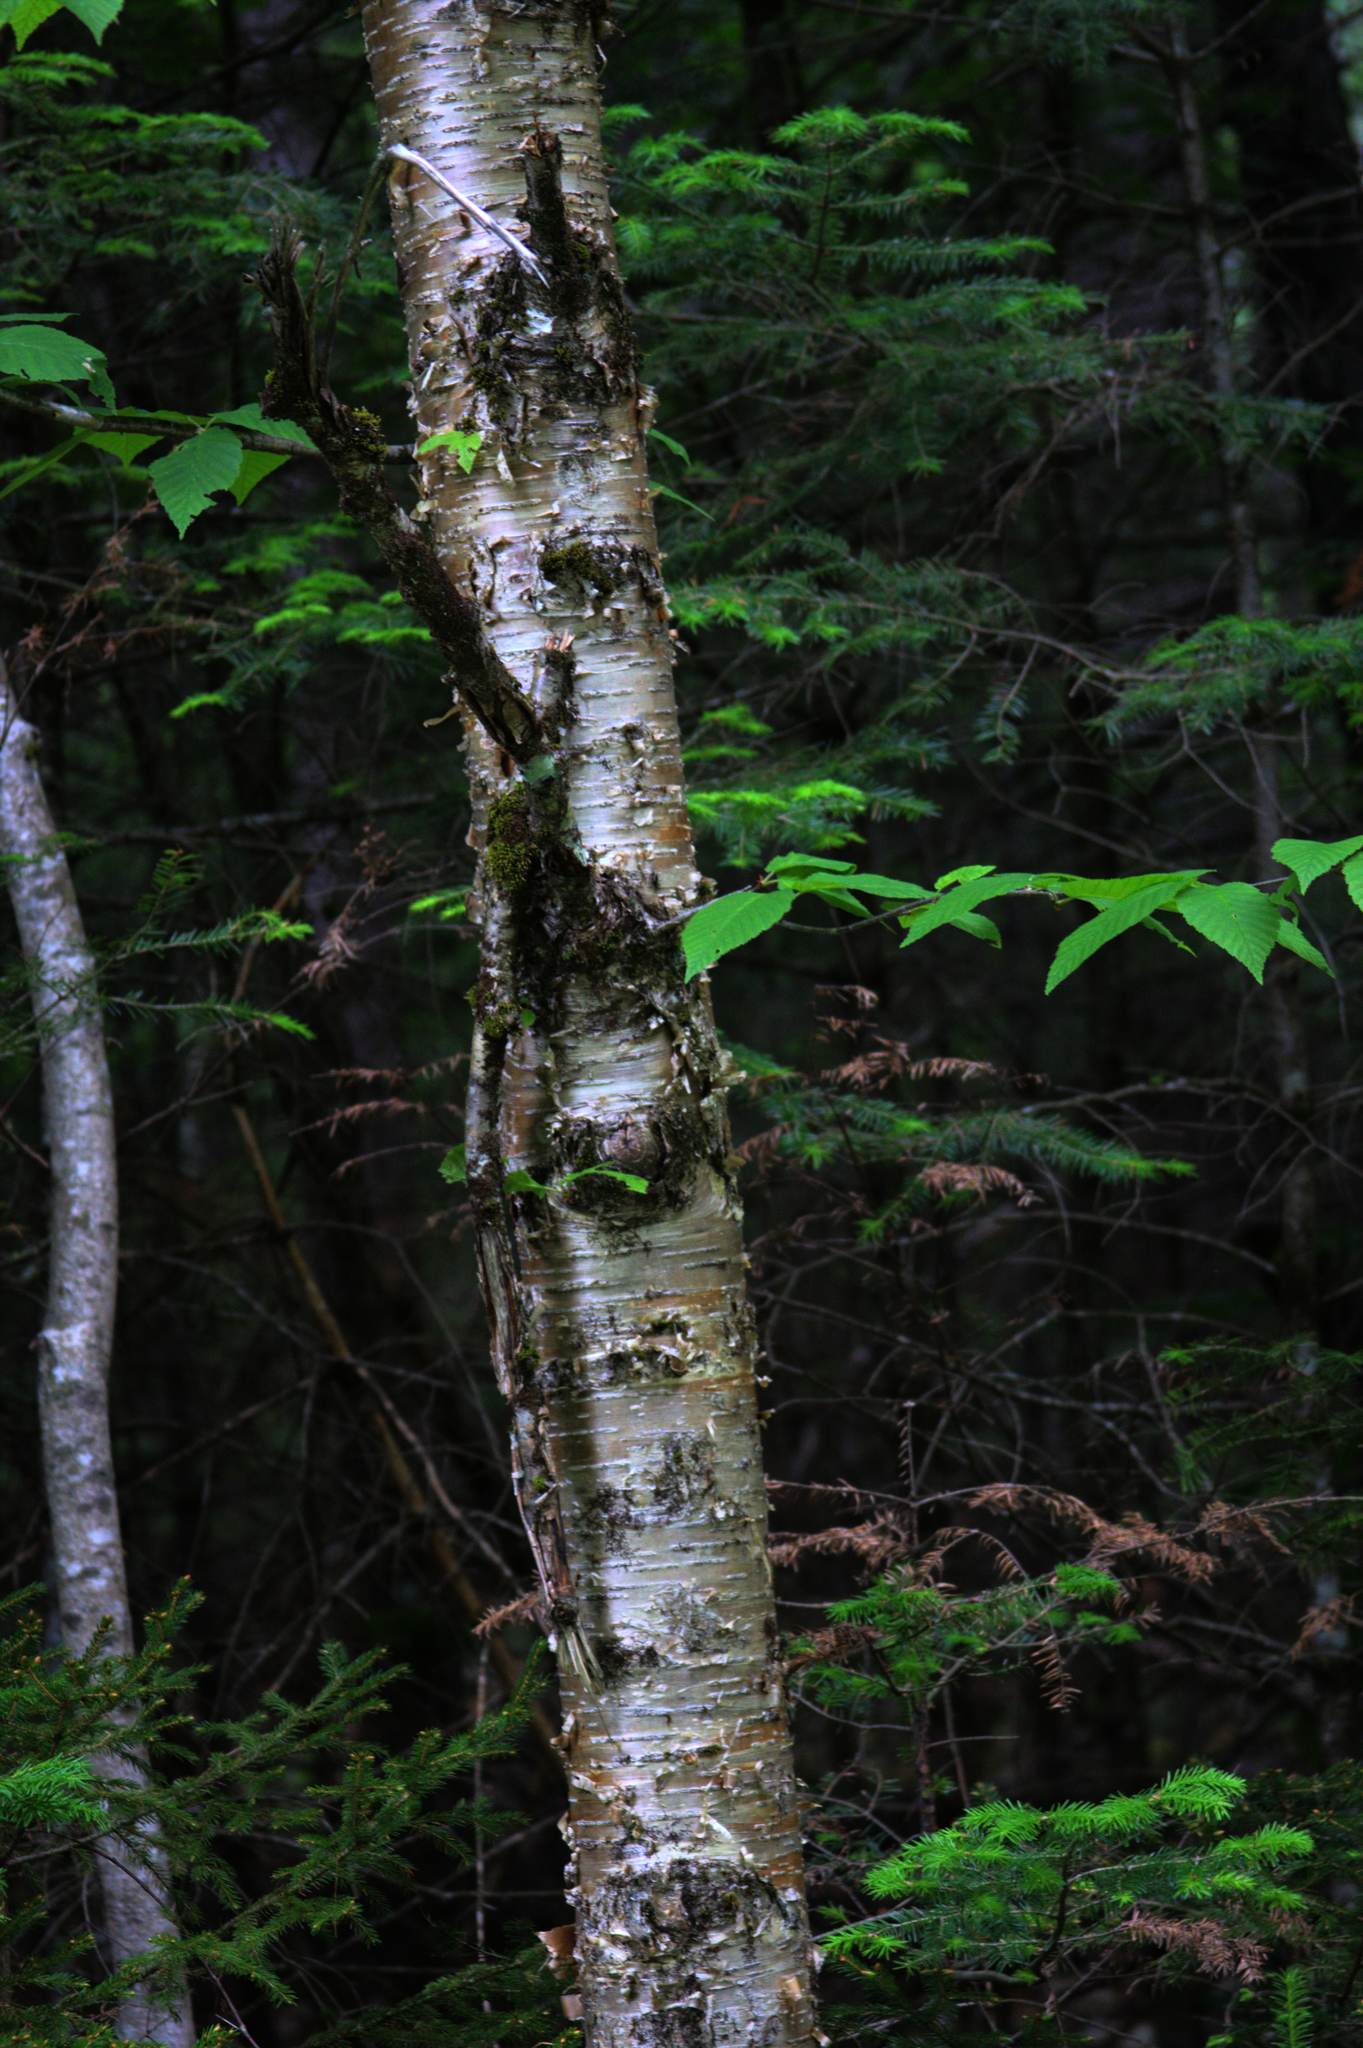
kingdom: Plantae
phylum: Tracheophyta
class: Magnoliopsida
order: Fagales
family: Betulaceae
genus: Betula
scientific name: Betula alleghaniensis
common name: Yellow birch
